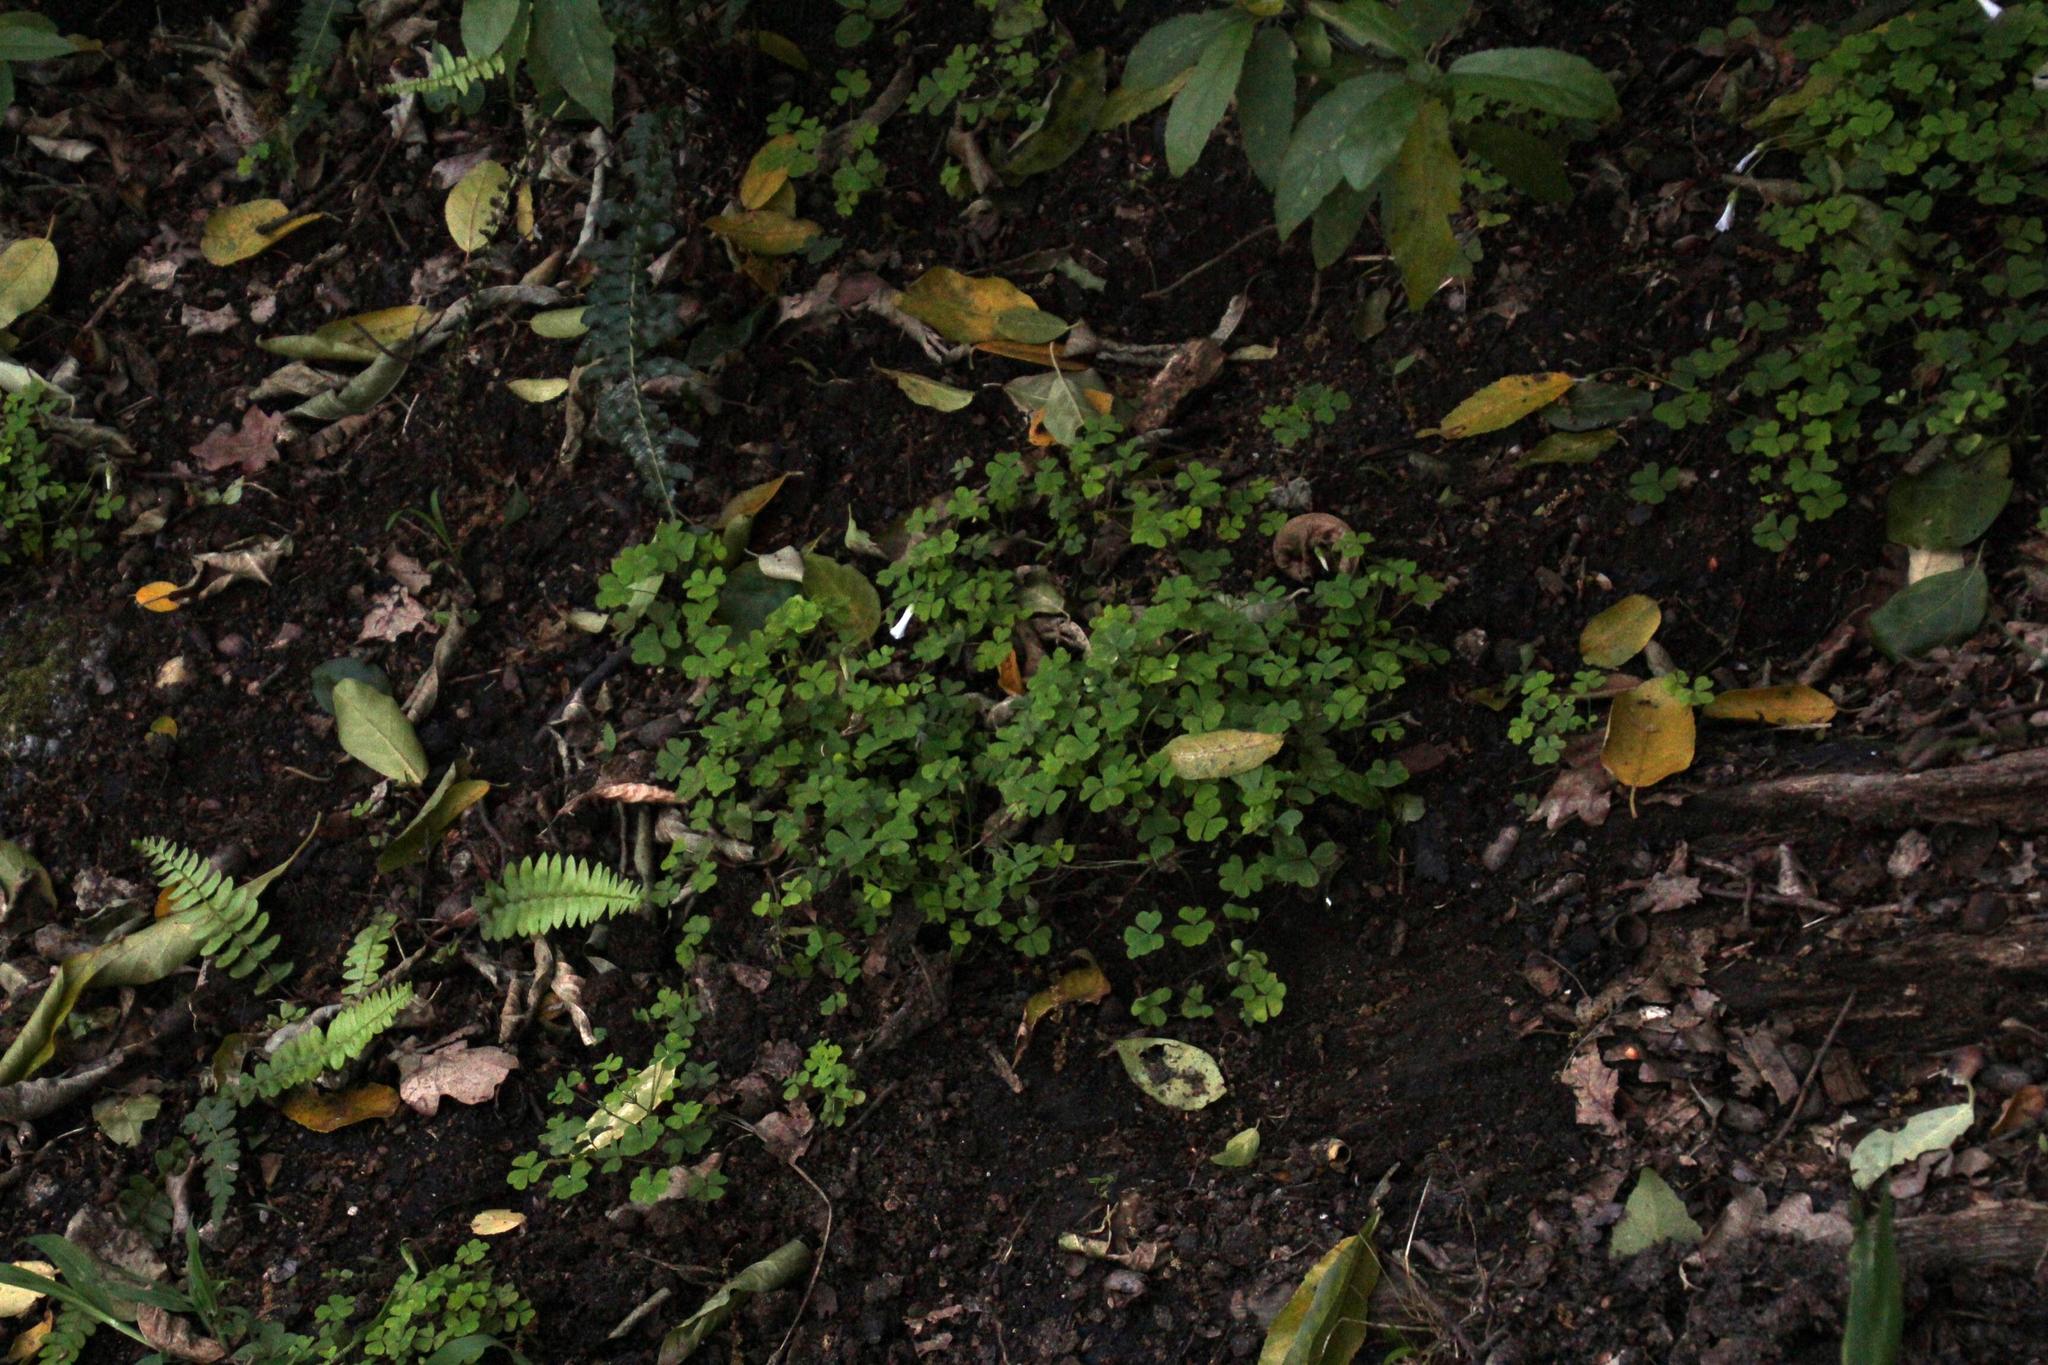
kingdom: Plantae
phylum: Tracheophyta
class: Magnoliopsida
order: Oxalidales
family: Oxalidaceae
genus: Oxalis
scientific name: Oxalis incarnata
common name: Pale pink-sorrel
